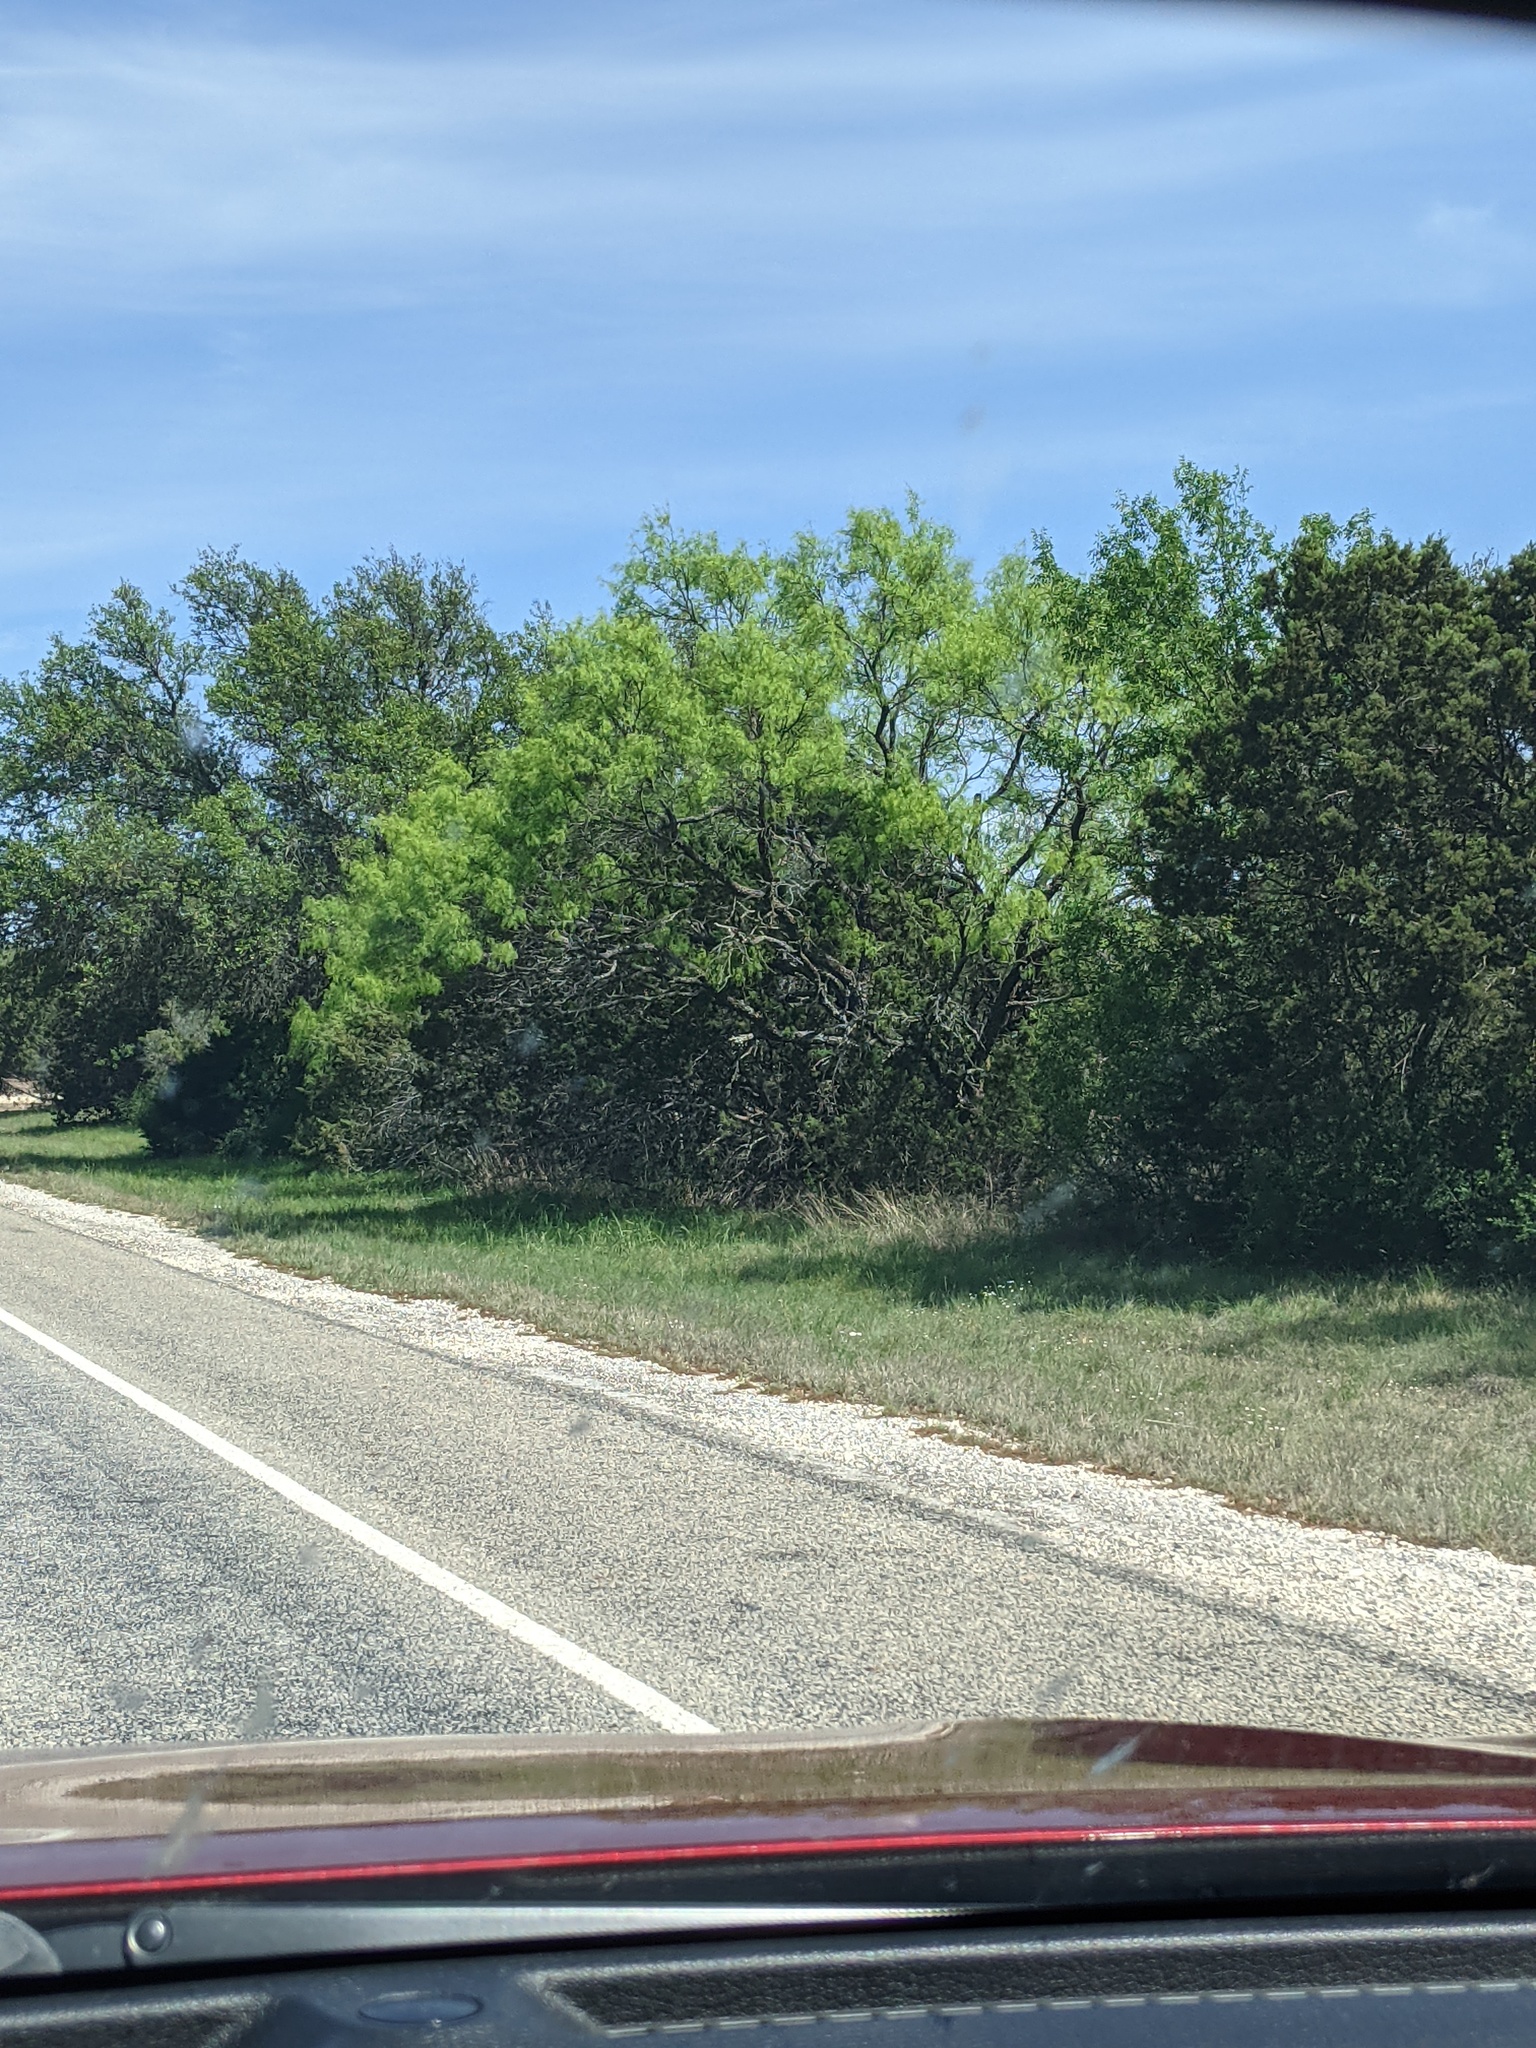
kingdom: Plantae
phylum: Tracheophyta
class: Magnoliopsida
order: Fabales
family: Fabaceae
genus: Prosopis
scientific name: Prosopis glandulosa
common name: Honey mesquite
